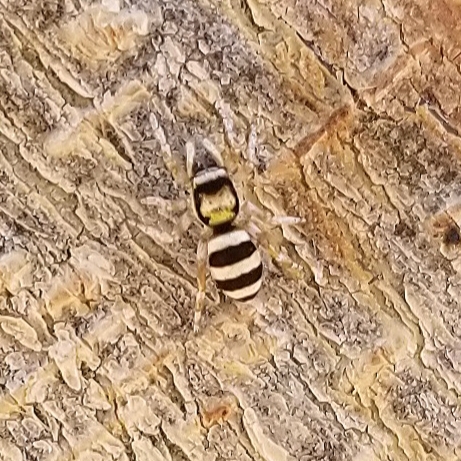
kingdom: Animalia
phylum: Arthropoda
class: Arachnida
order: Araneae
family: Salticidae
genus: Salticus
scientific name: Salticus palpalis
